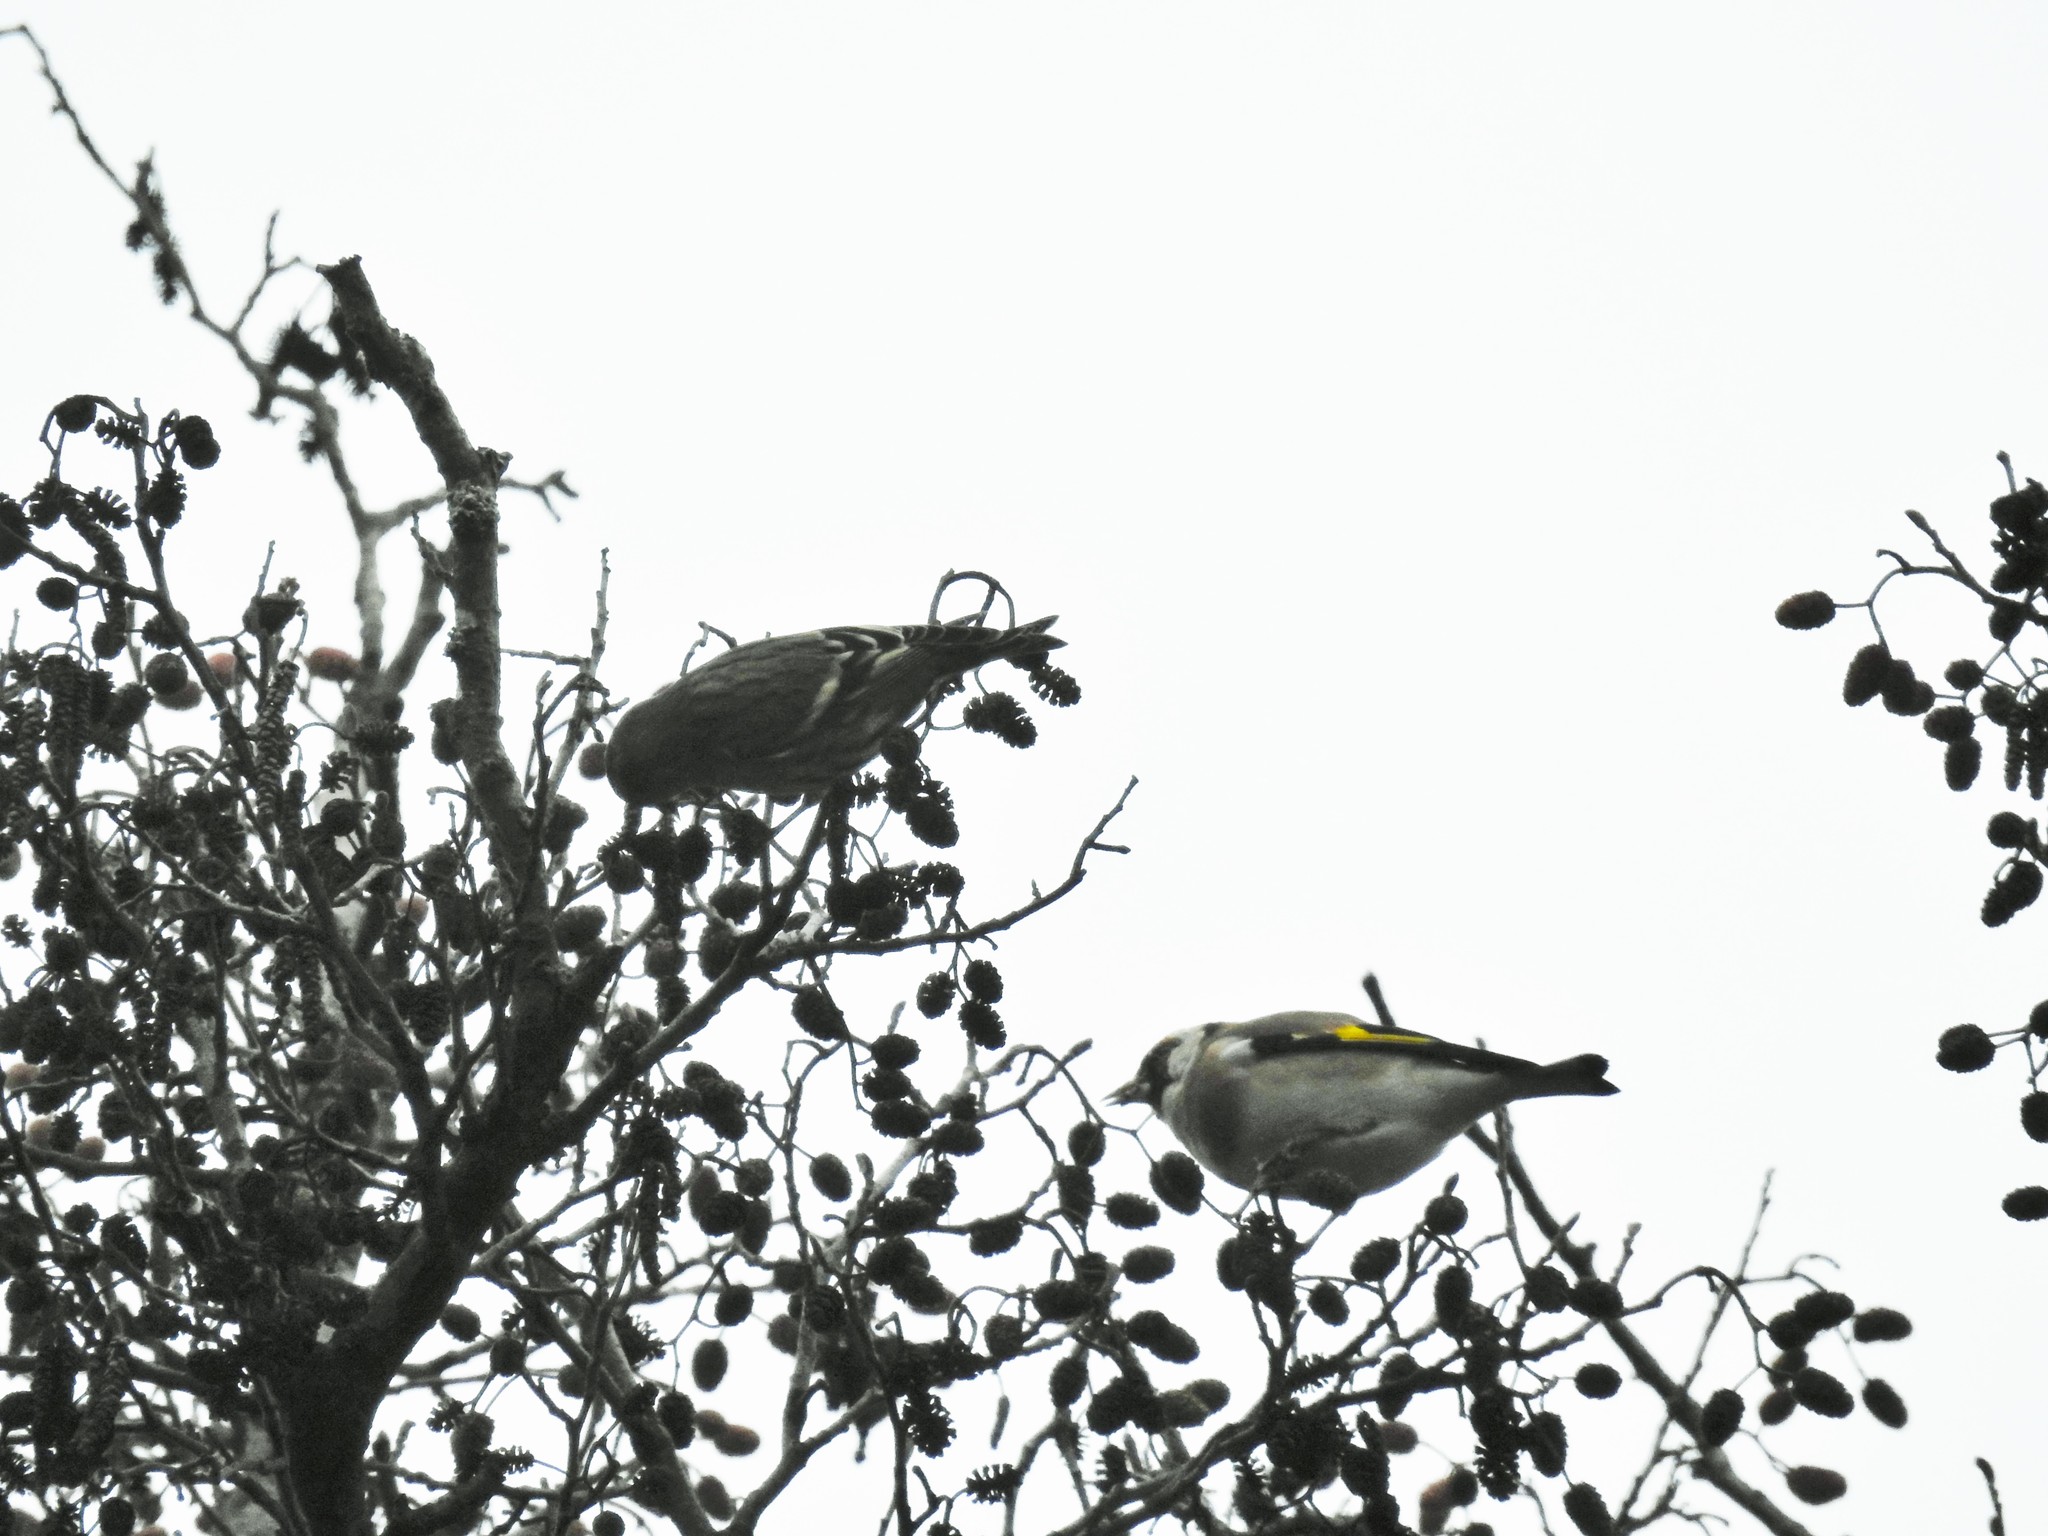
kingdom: Animalia
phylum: Chordata
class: Aves
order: Passeriformes
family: Fringillidae
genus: Carduelis
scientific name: Carduelis carduelis
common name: European goldfinch
